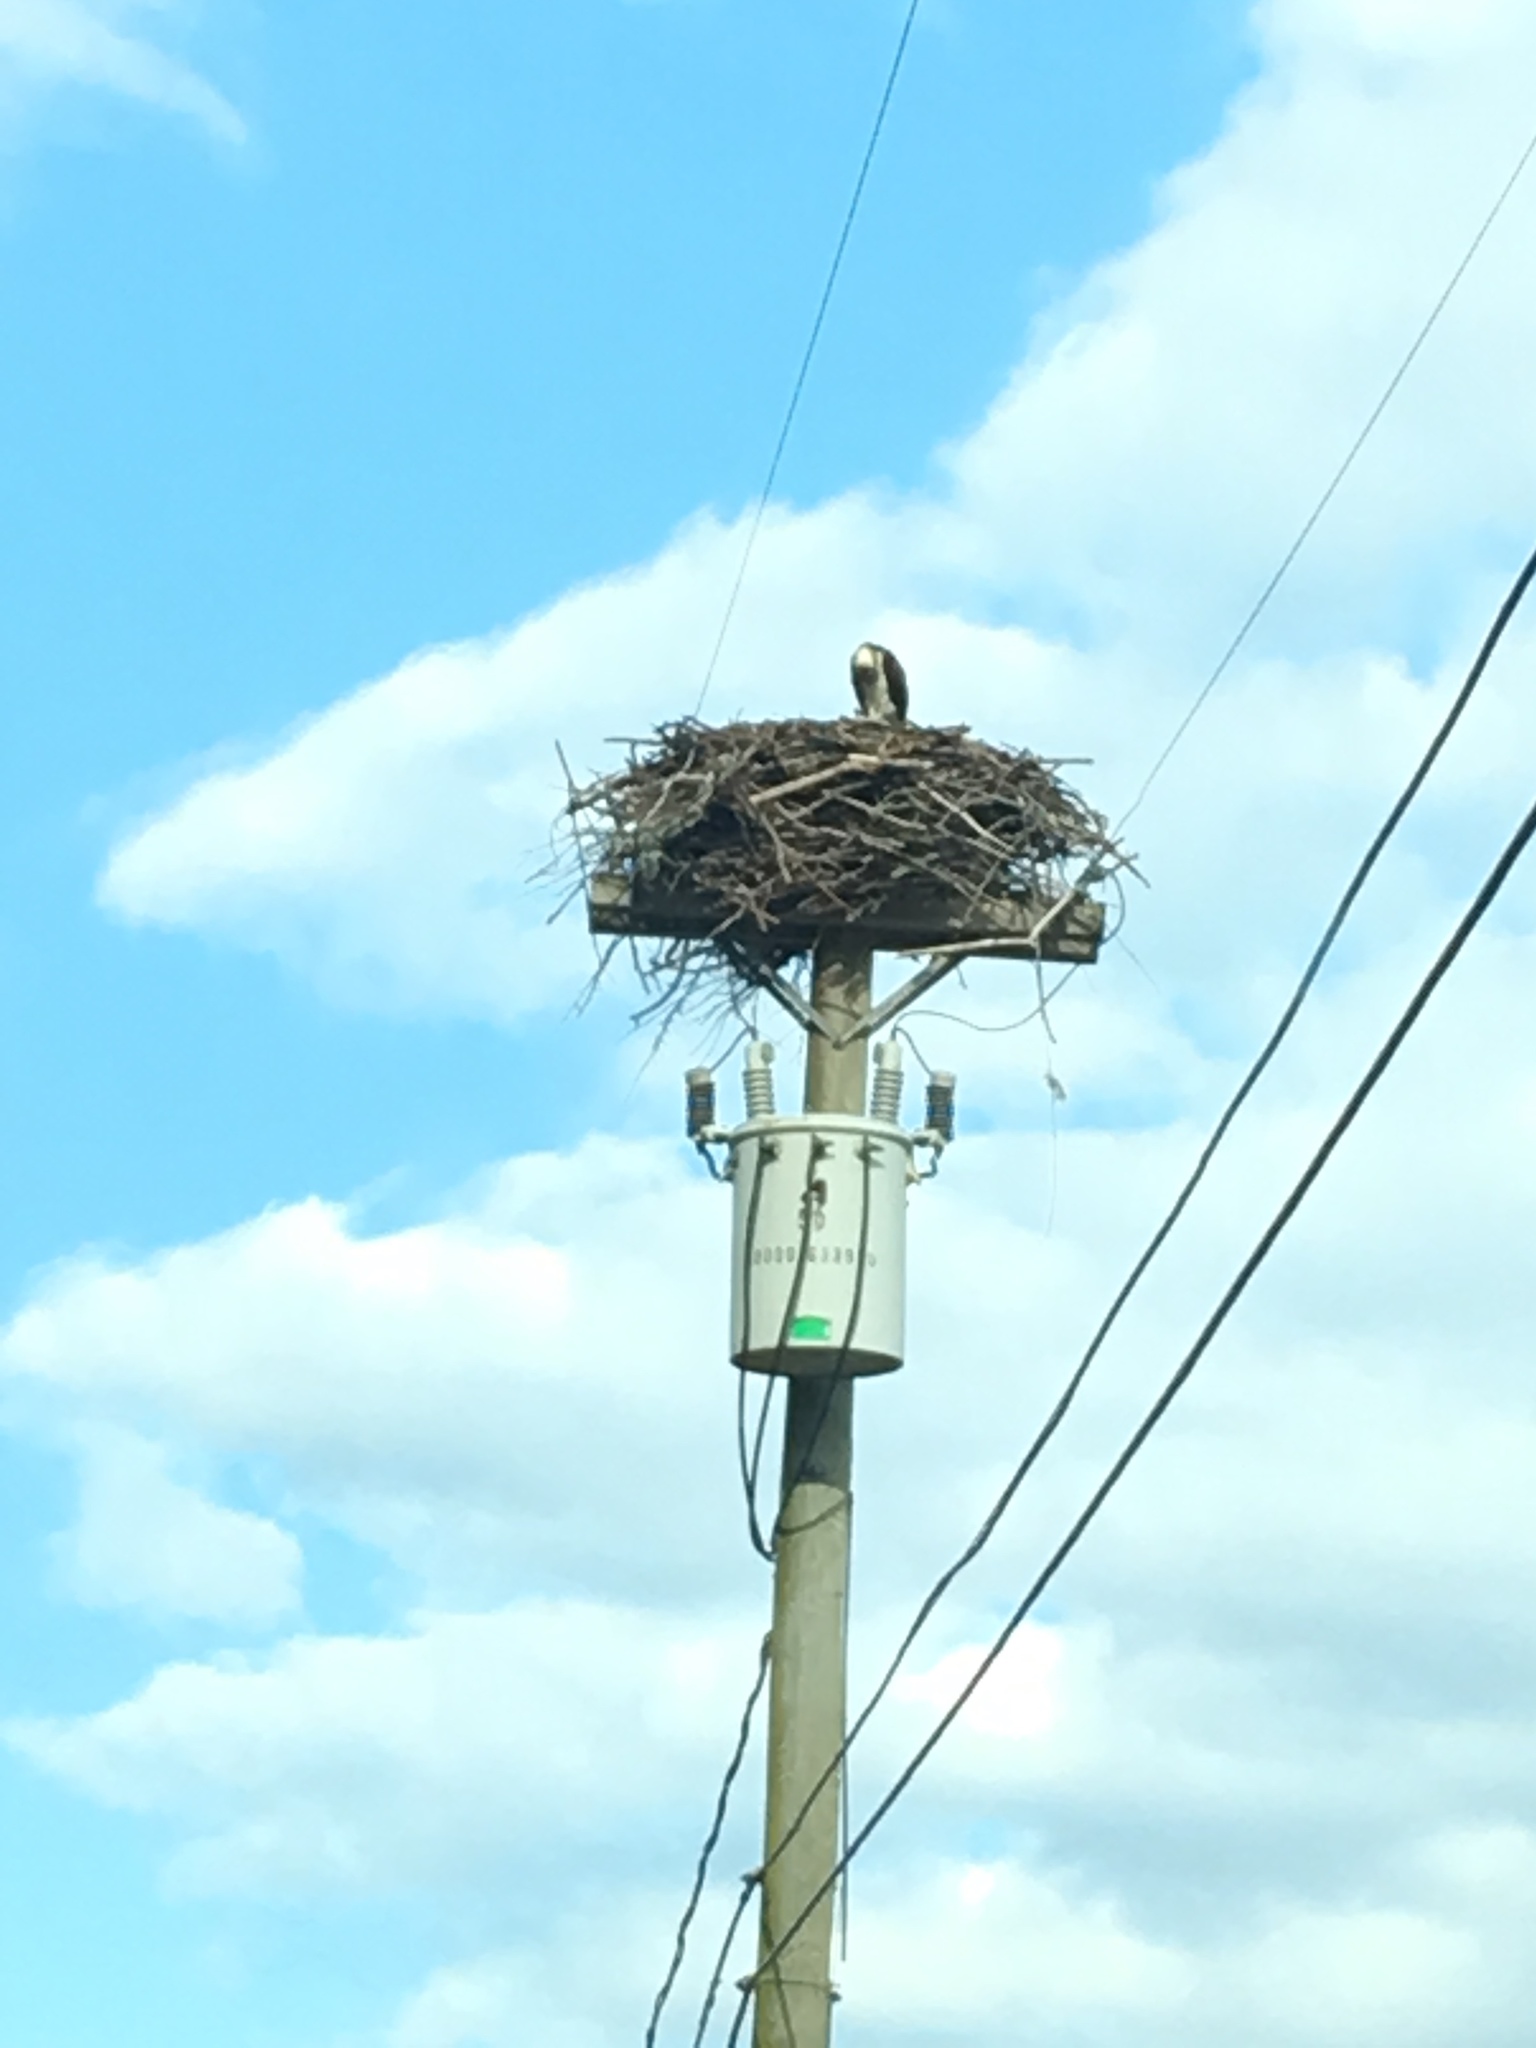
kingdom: Animalia
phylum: Chordata
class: Aves
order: Accipitriformes
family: Pandionidae
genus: Pandion
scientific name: Pandion haliaetus
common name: Osprey
